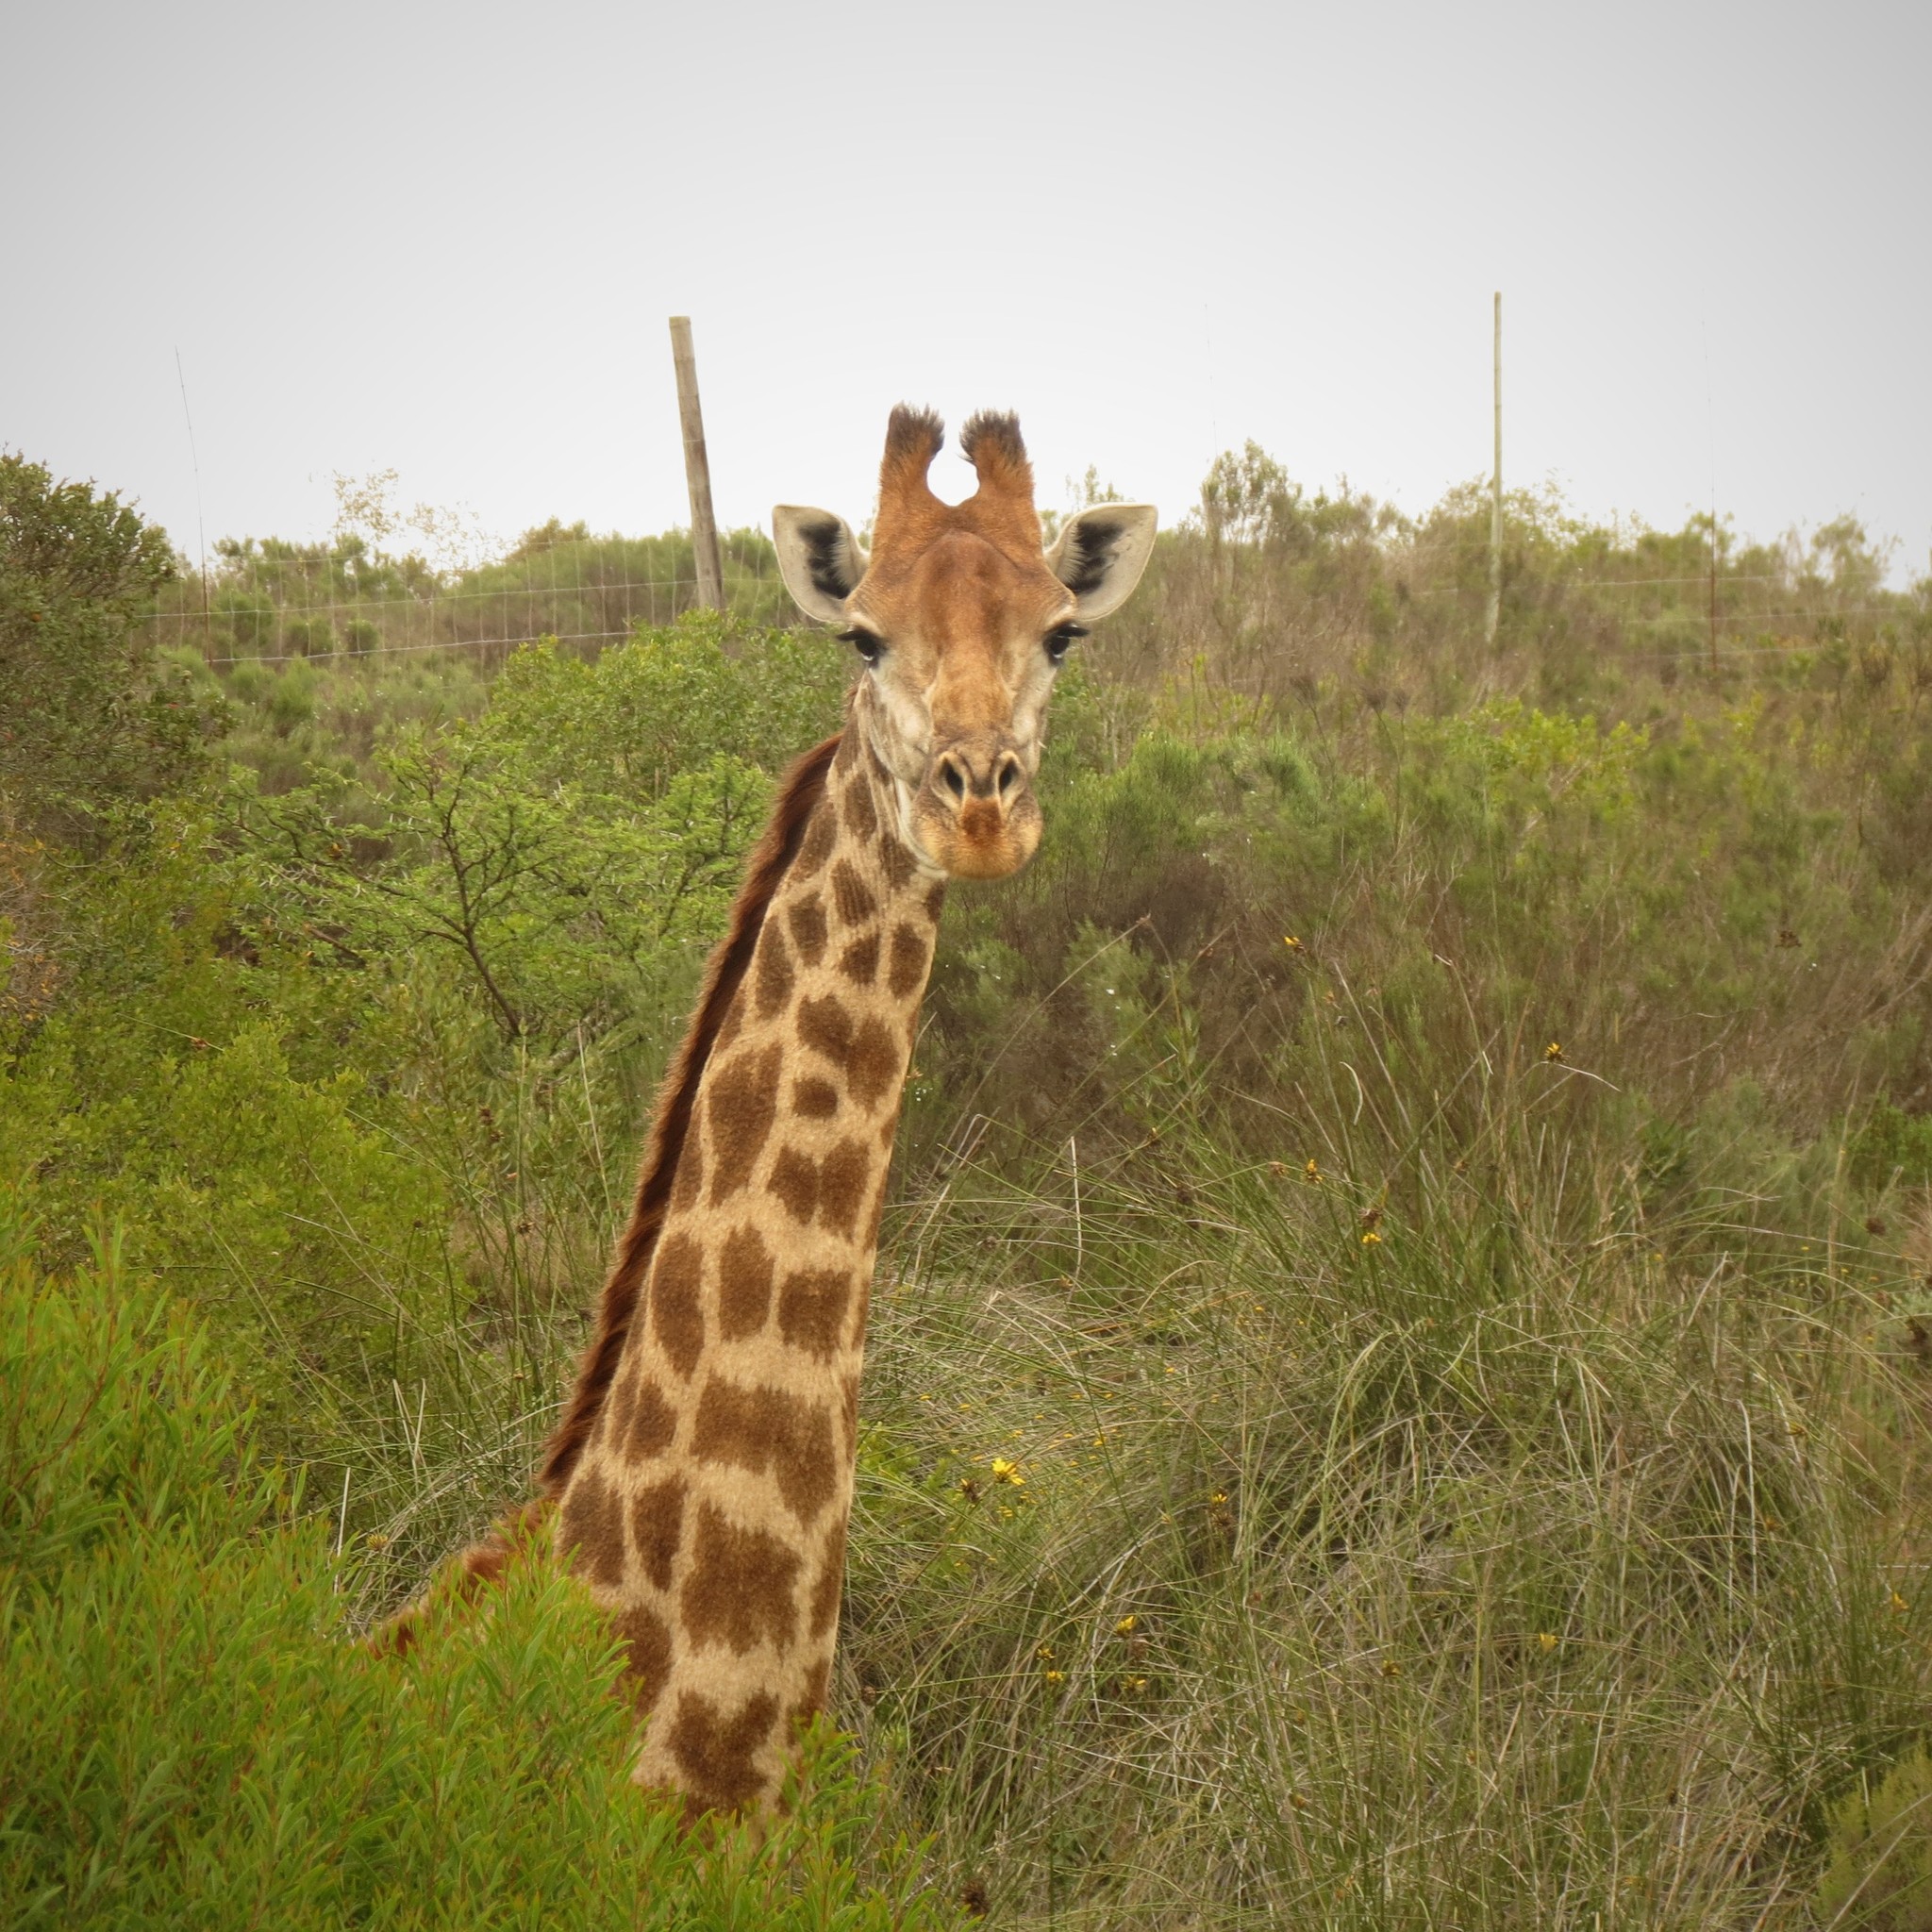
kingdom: Animalia
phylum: Chordata
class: Mammalia
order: Artiodactyla
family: Giraffidae
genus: Giraffa
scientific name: Giraffa giraffa
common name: Southern giraffe
